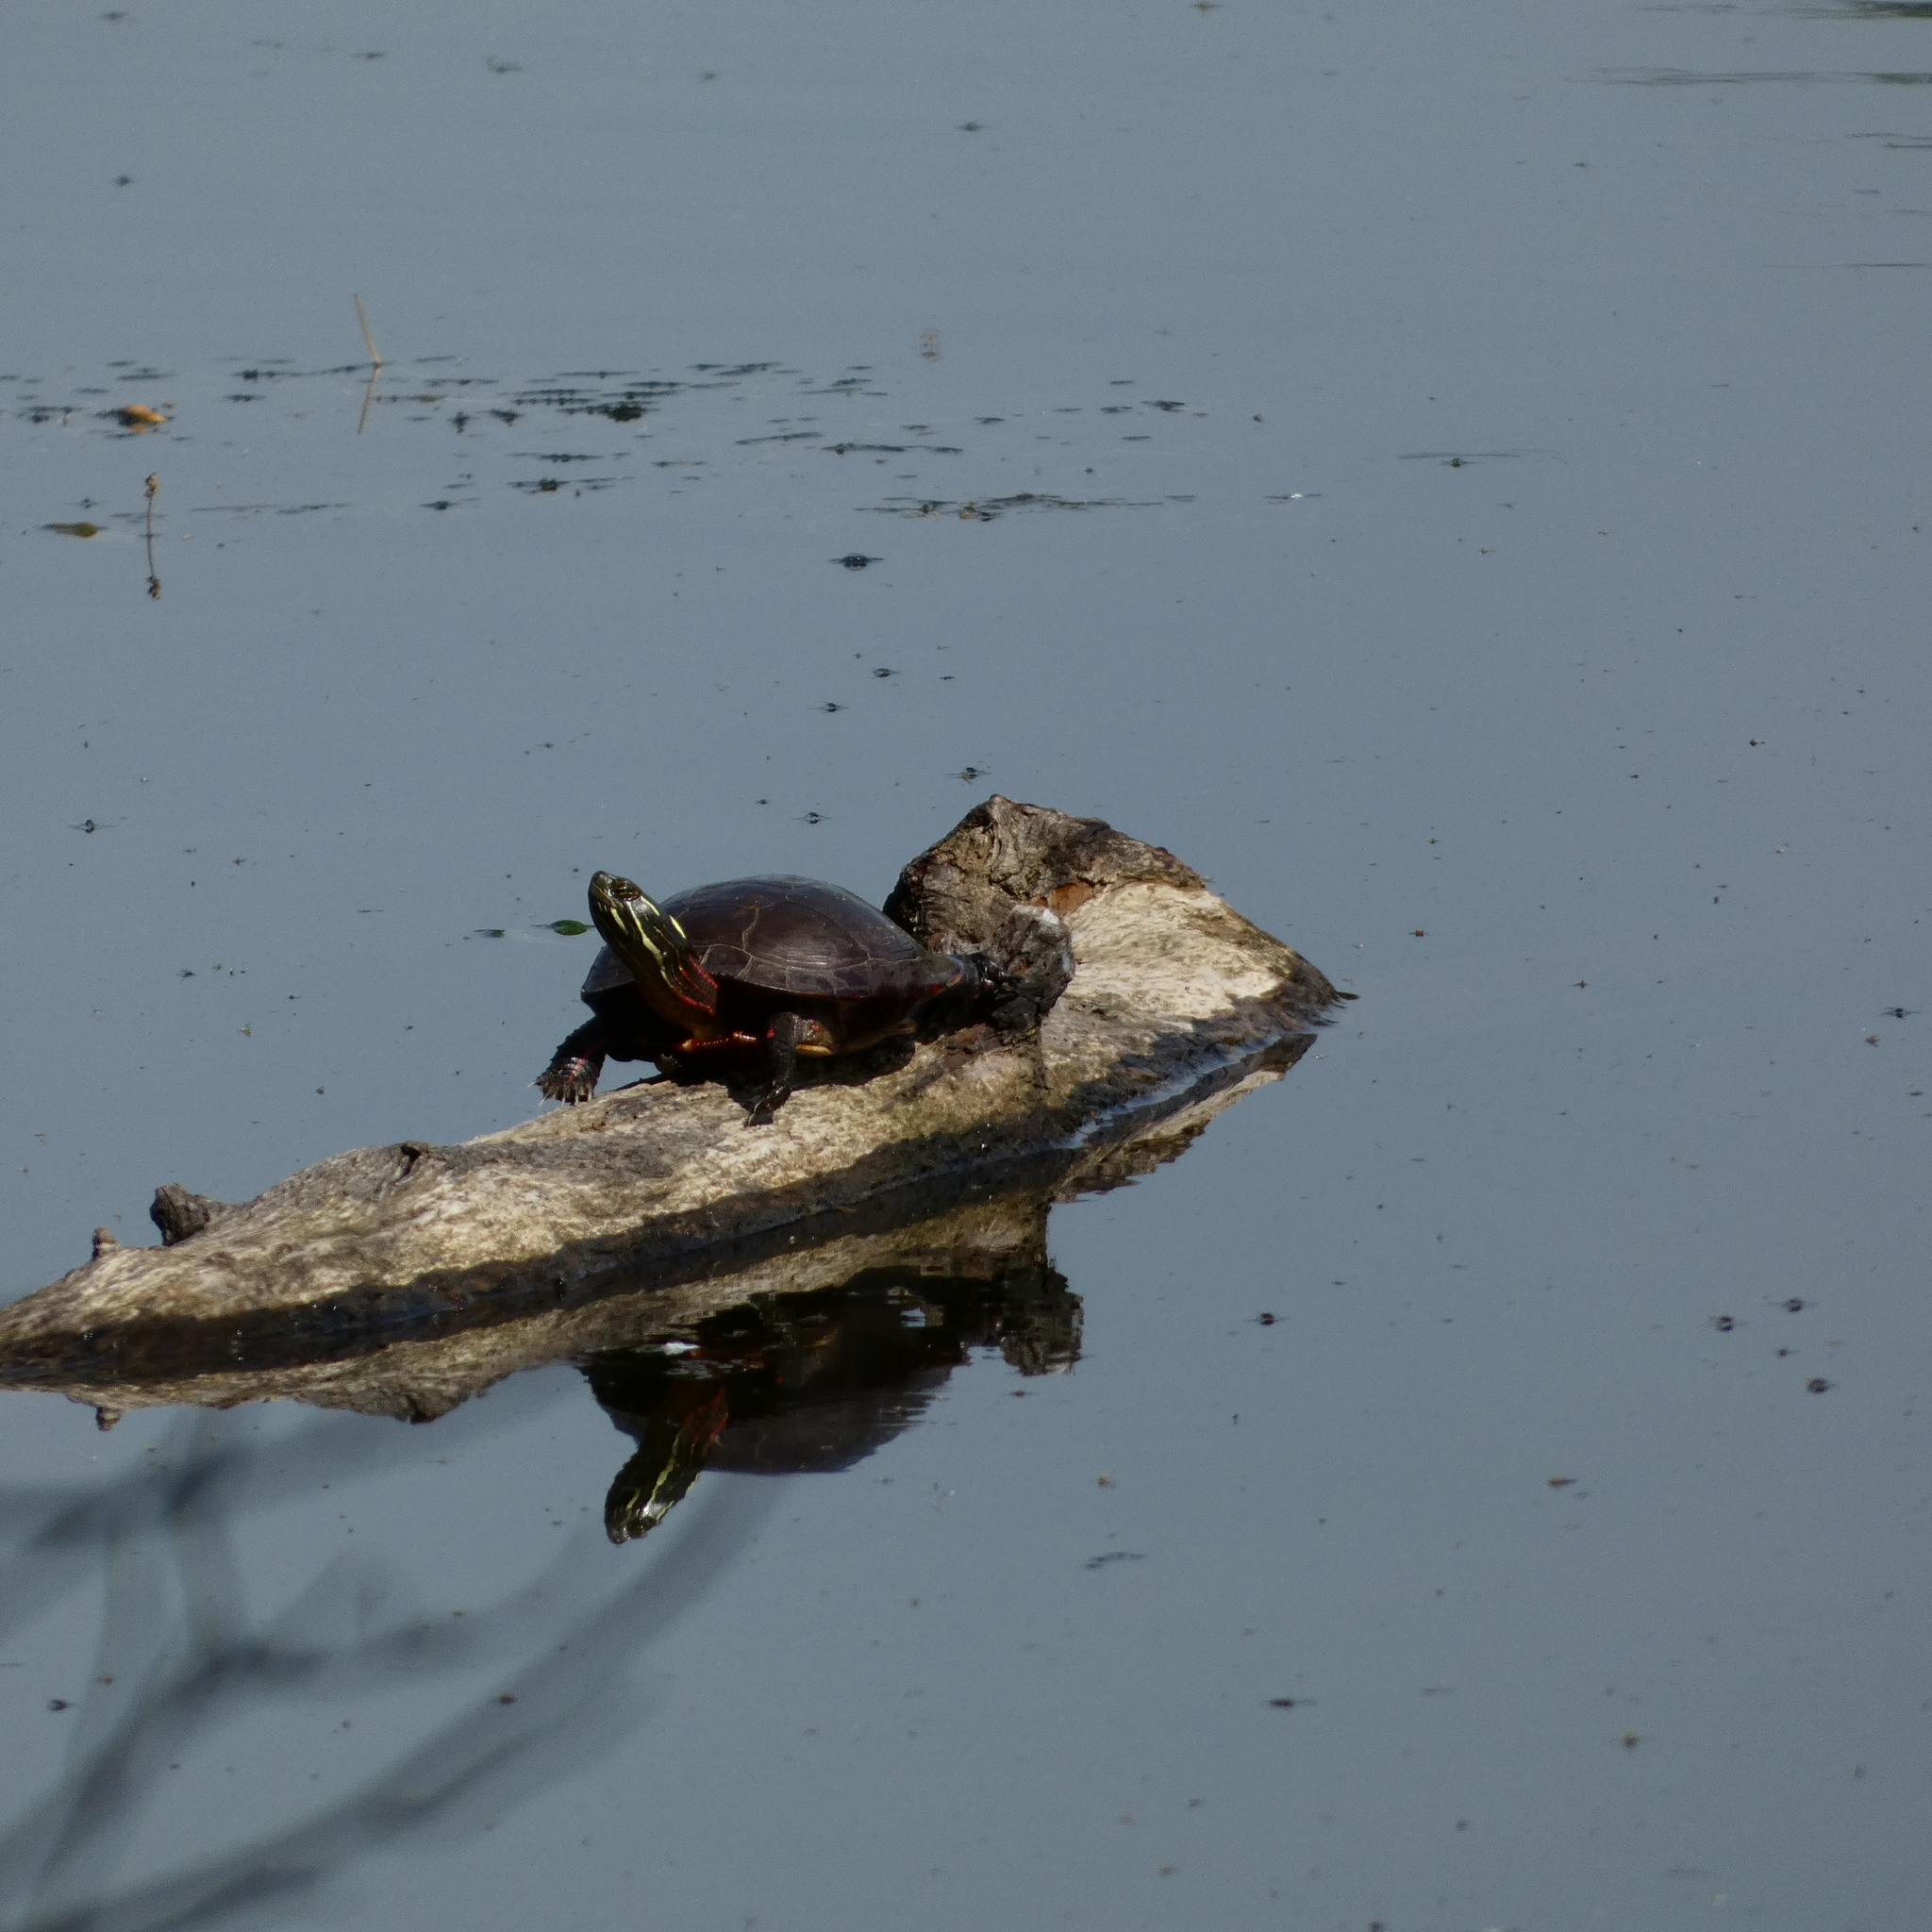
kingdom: Animalia
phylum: Chordata
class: Testudines
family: Emydidae
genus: Chrysemys
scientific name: Chrysemys picta
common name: Painted turtle
